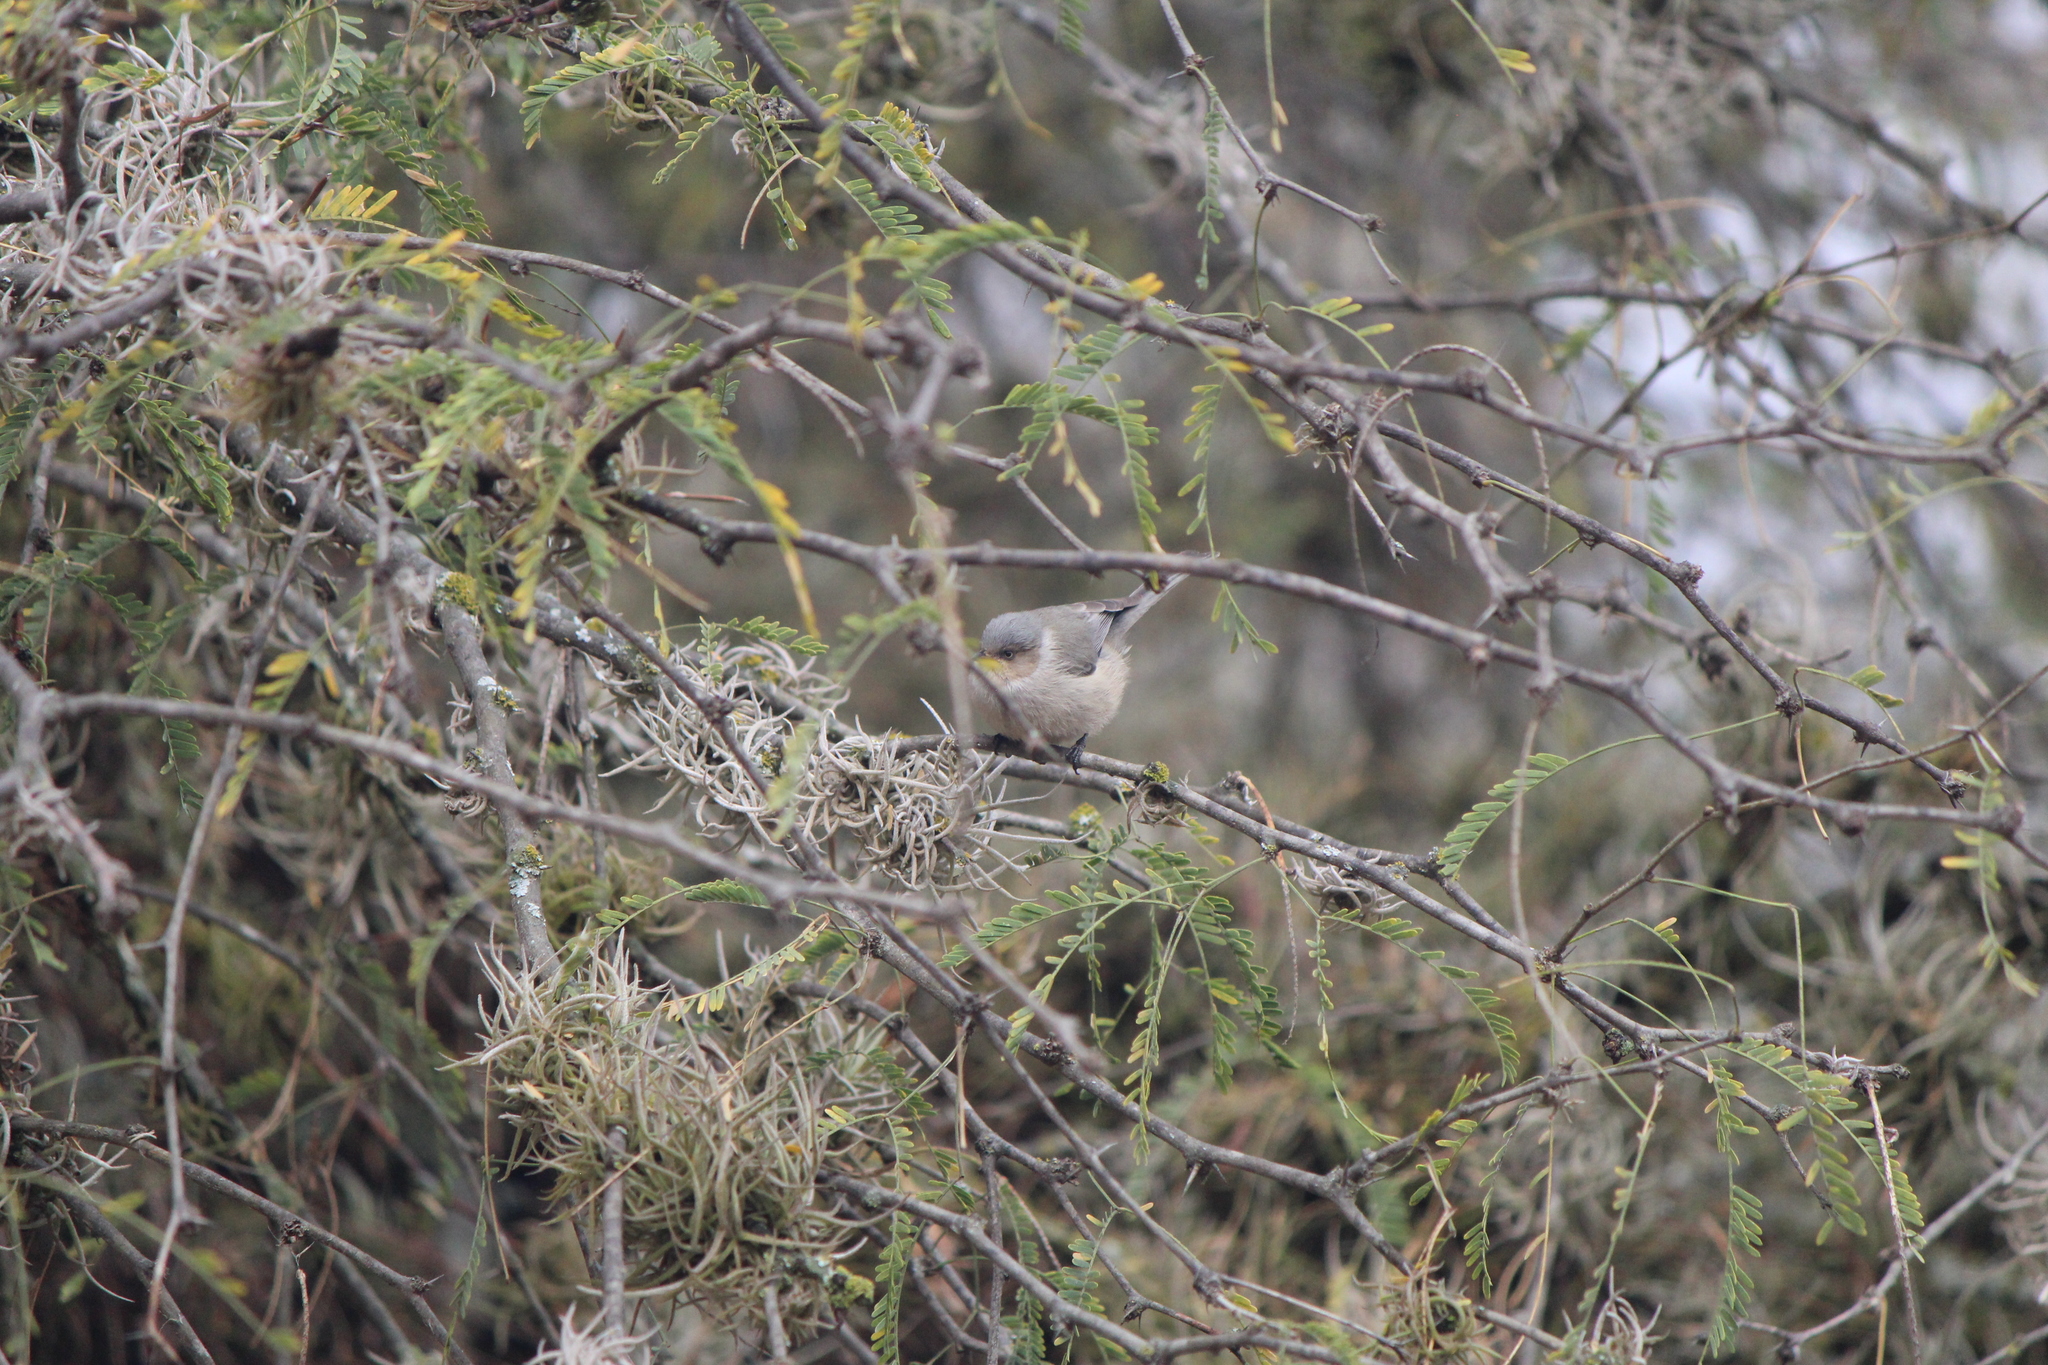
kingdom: Animalia
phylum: Chordata
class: Aves
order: Passeriformes
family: Aegithalidae
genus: Psaltriparus
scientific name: Psaltriparus minimus
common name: American bushtit
